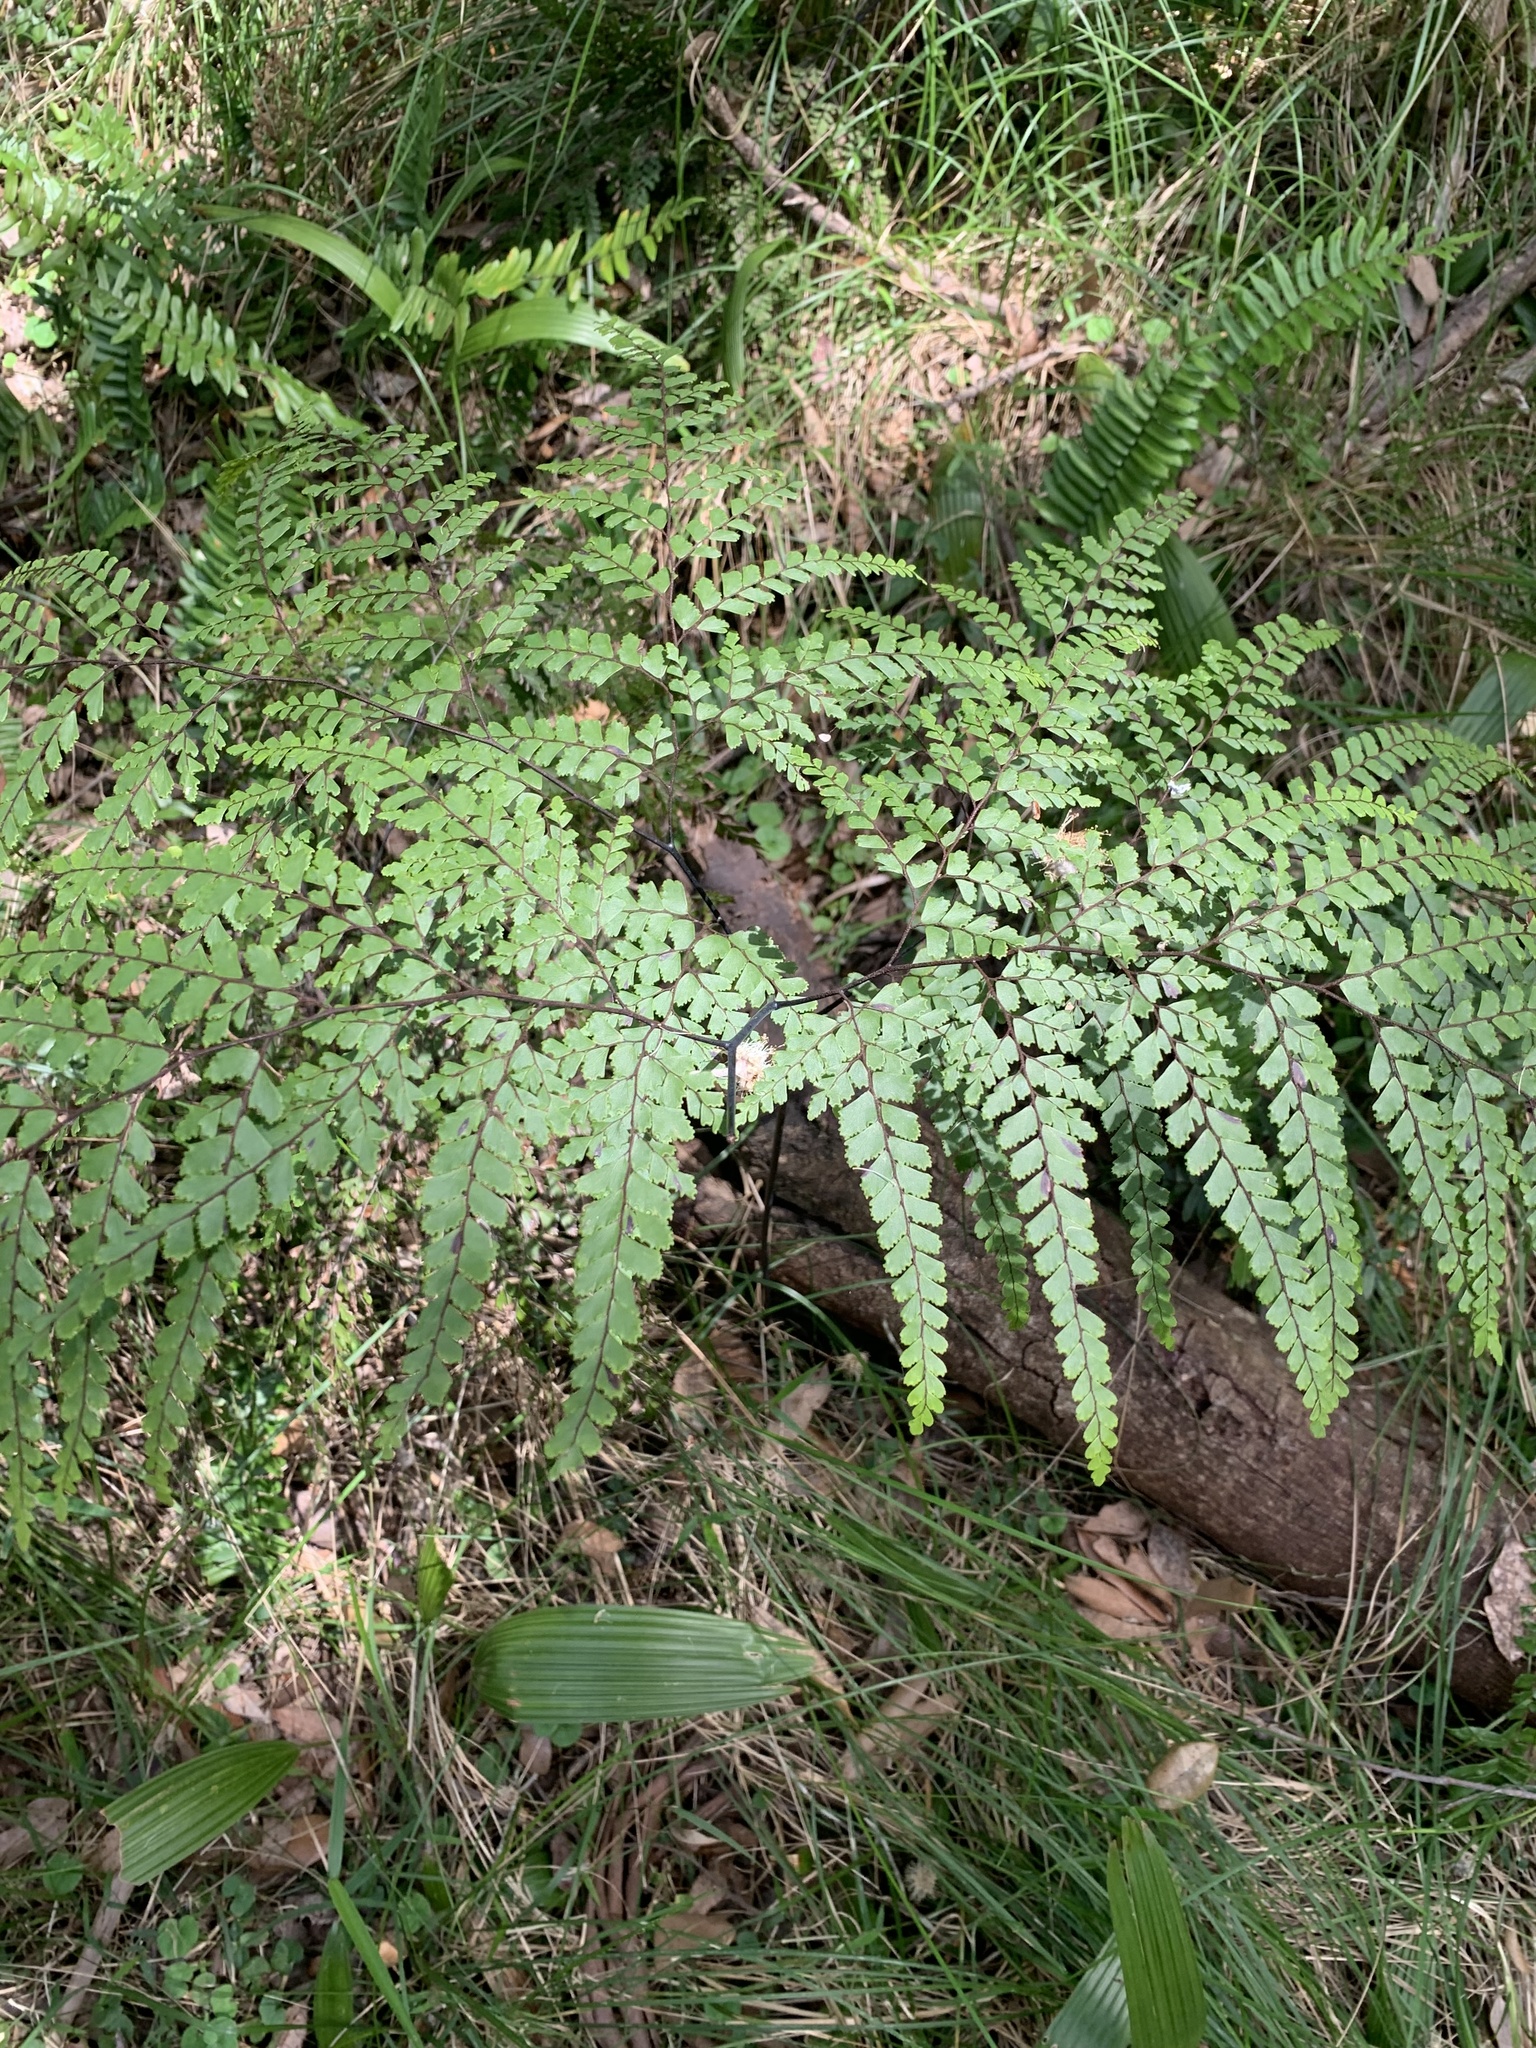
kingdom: Plantae
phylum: Tracheophyta
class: Polypodiopsida
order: Polypodiales
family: Pteridaceae
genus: Adiantum
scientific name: Adiantum formosum
